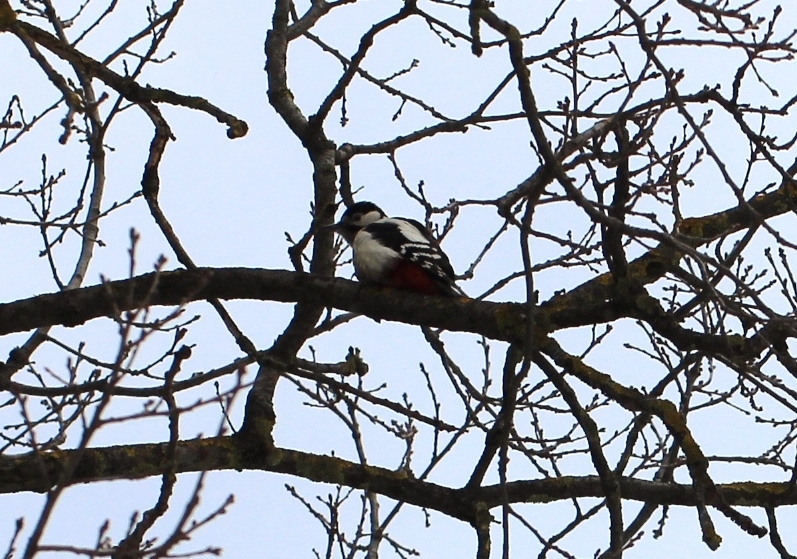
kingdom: Animalia
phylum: Chordata
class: Aves
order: Piciformes
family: Picidae
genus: Dendrocopos
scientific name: Dendrocopos major
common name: Great spotted woodpecker
